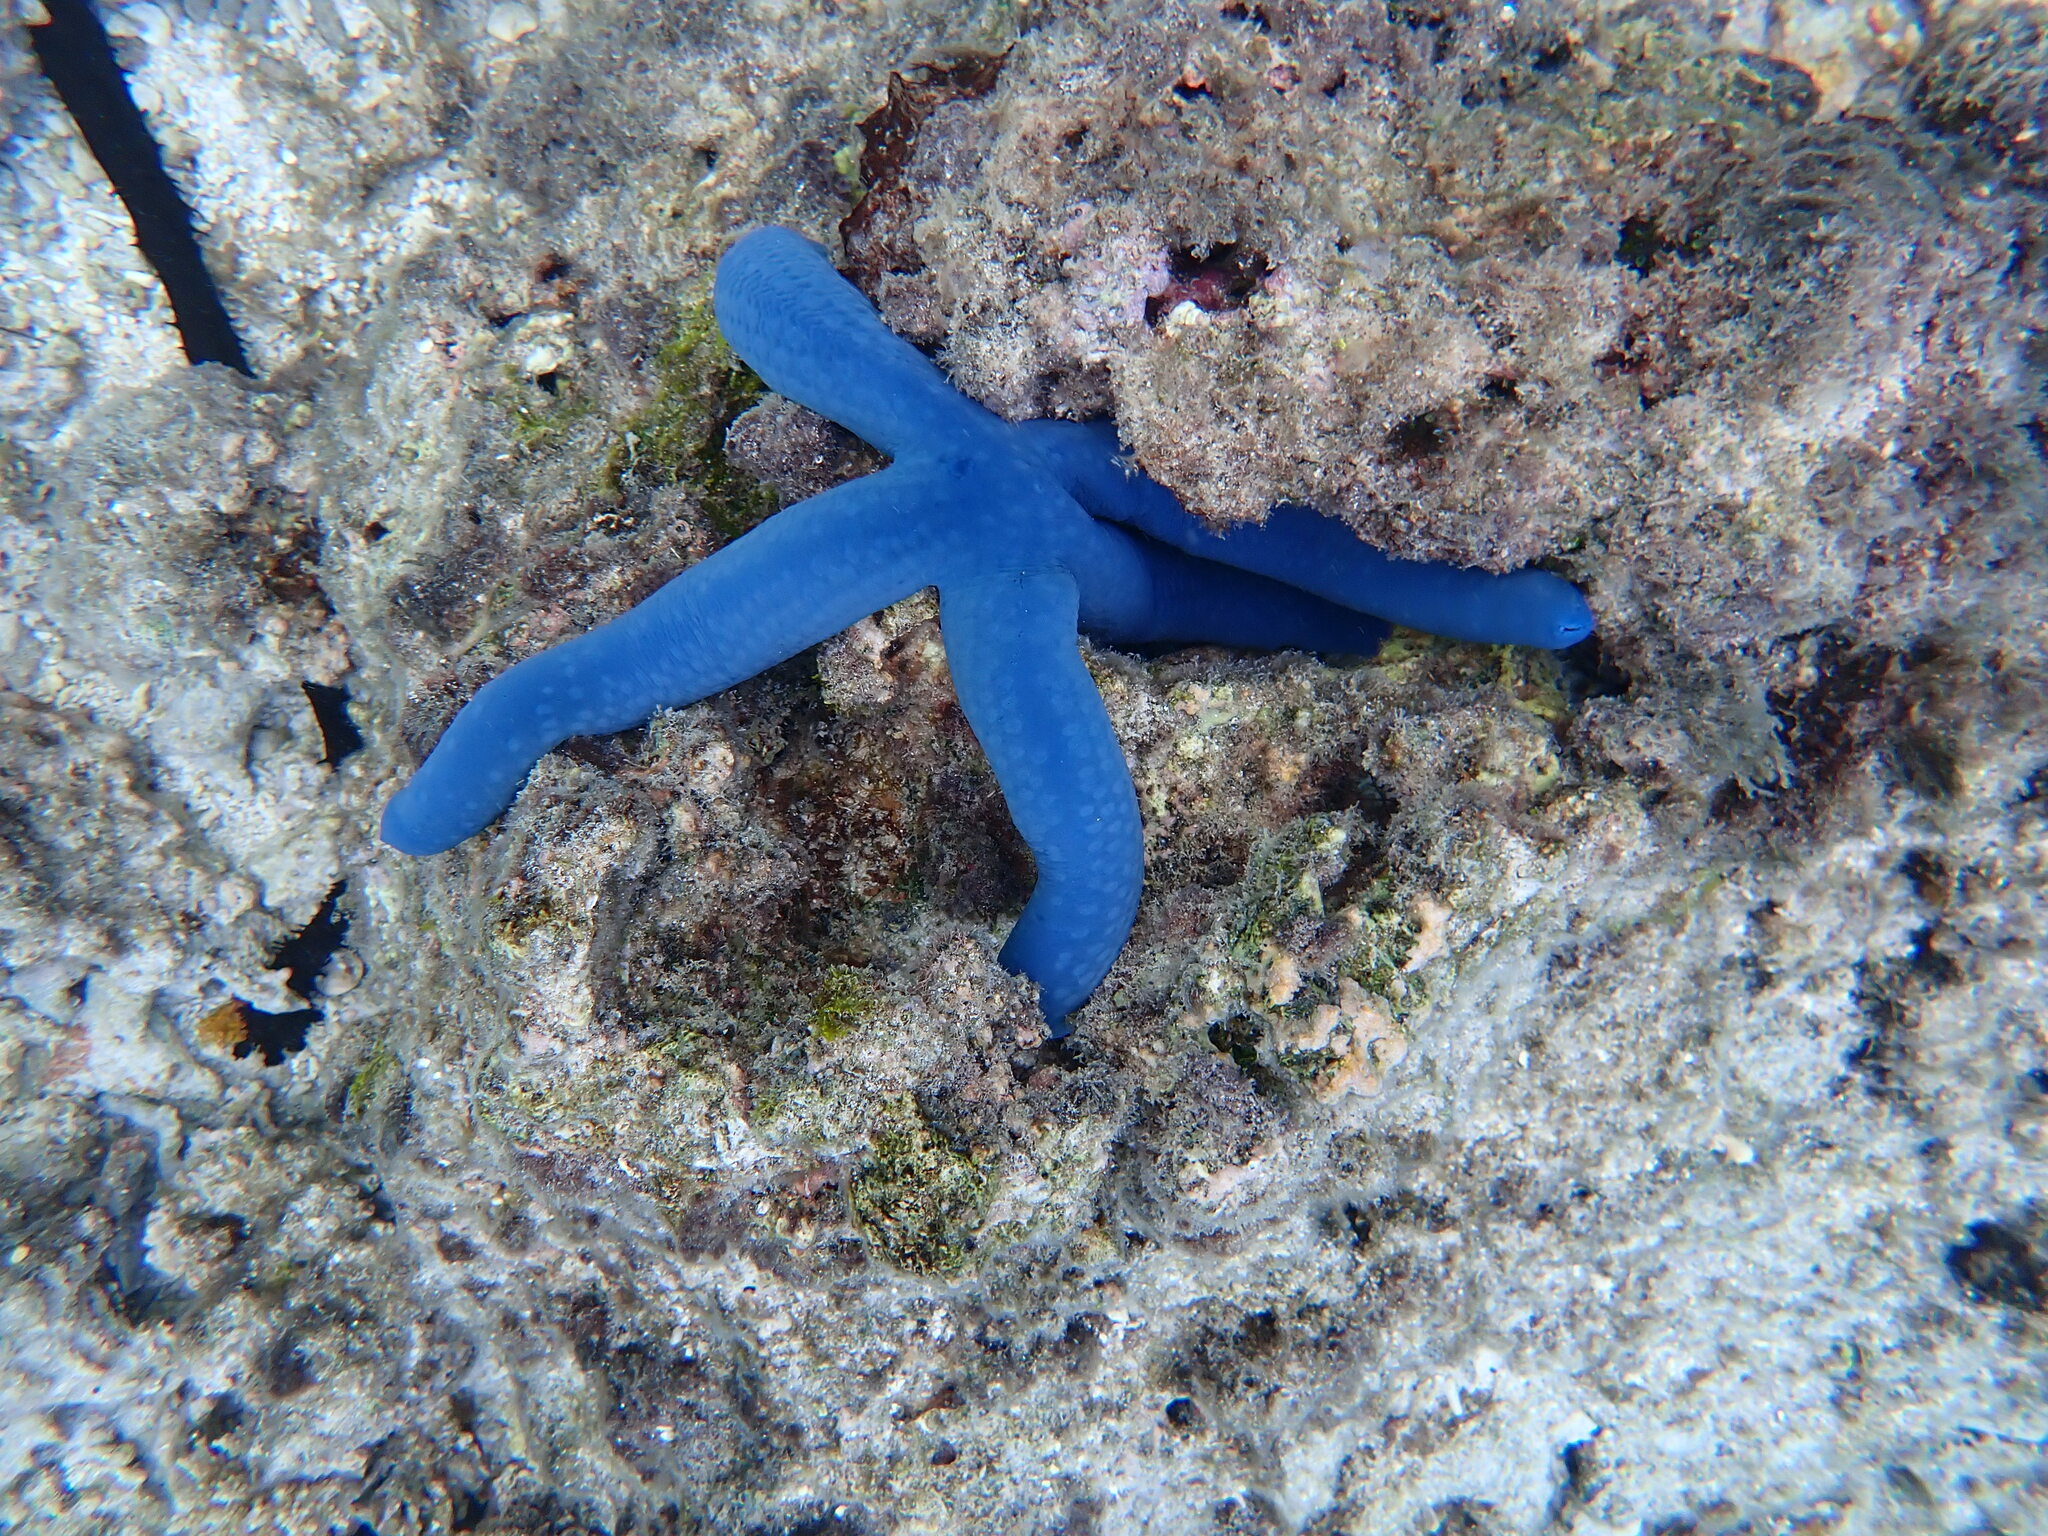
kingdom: Animalia
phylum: Echinodermata
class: Asteroidea
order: Valvatida
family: Ophidiasteridae
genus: Linckia
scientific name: Linckia laevigata
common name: Azure sea star
